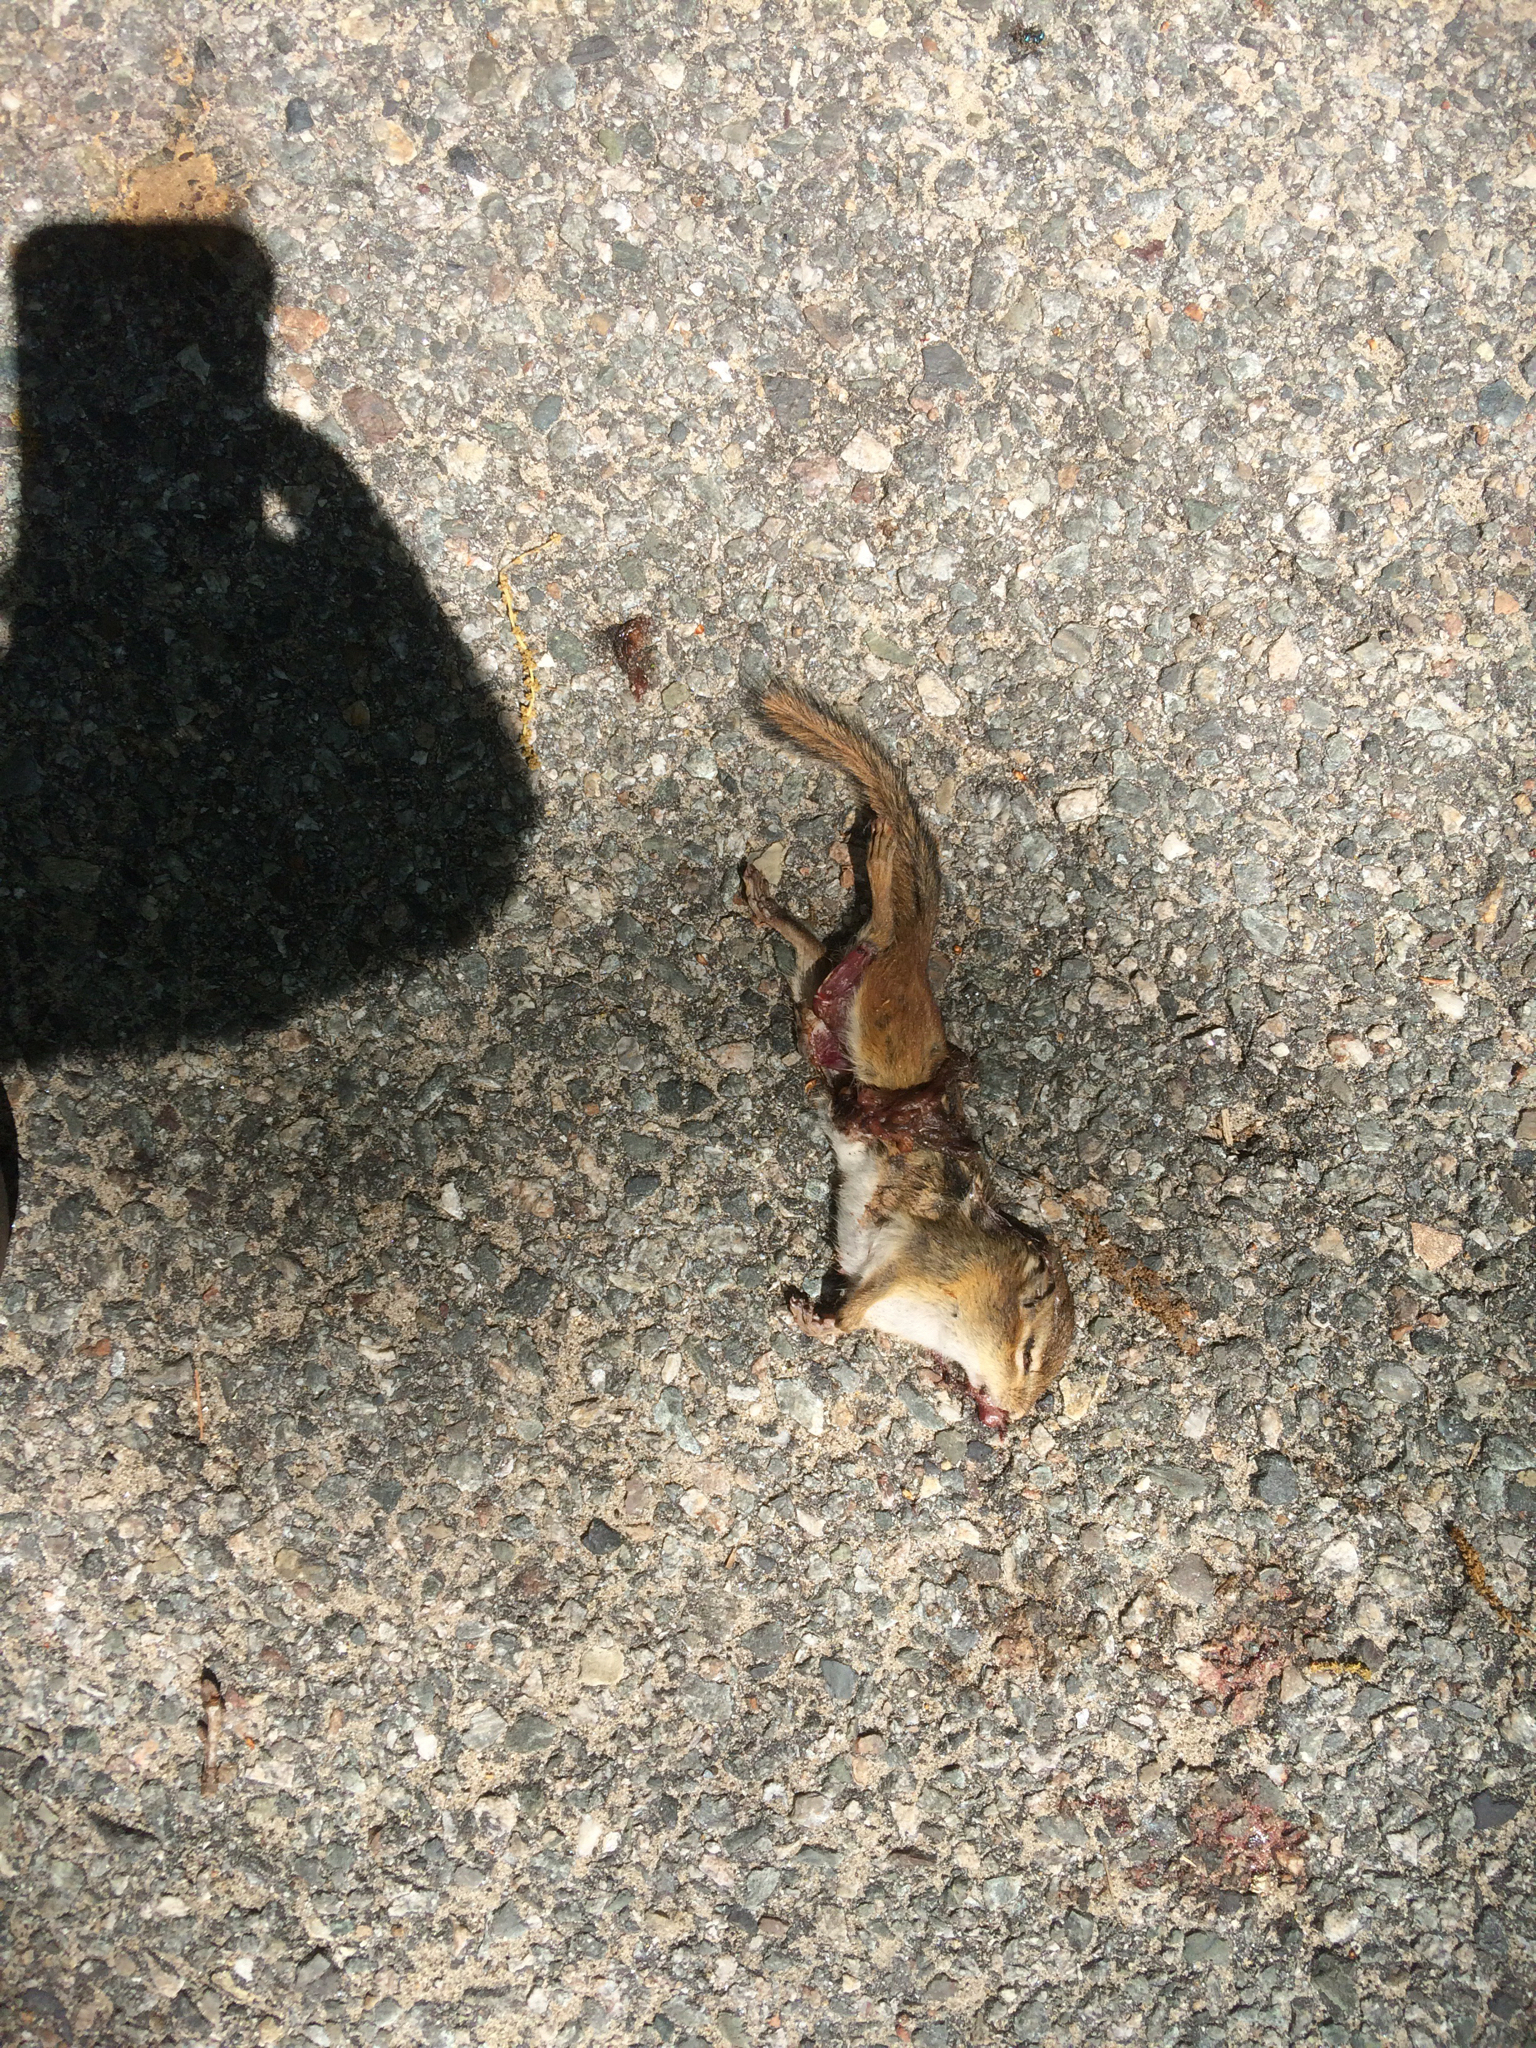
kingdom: Animalia
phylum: Chordata
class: Mammalia
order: Rodentia
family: Sciuridae
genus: Tamias
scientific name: Tamias striatus
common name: Eastern chipmunk
